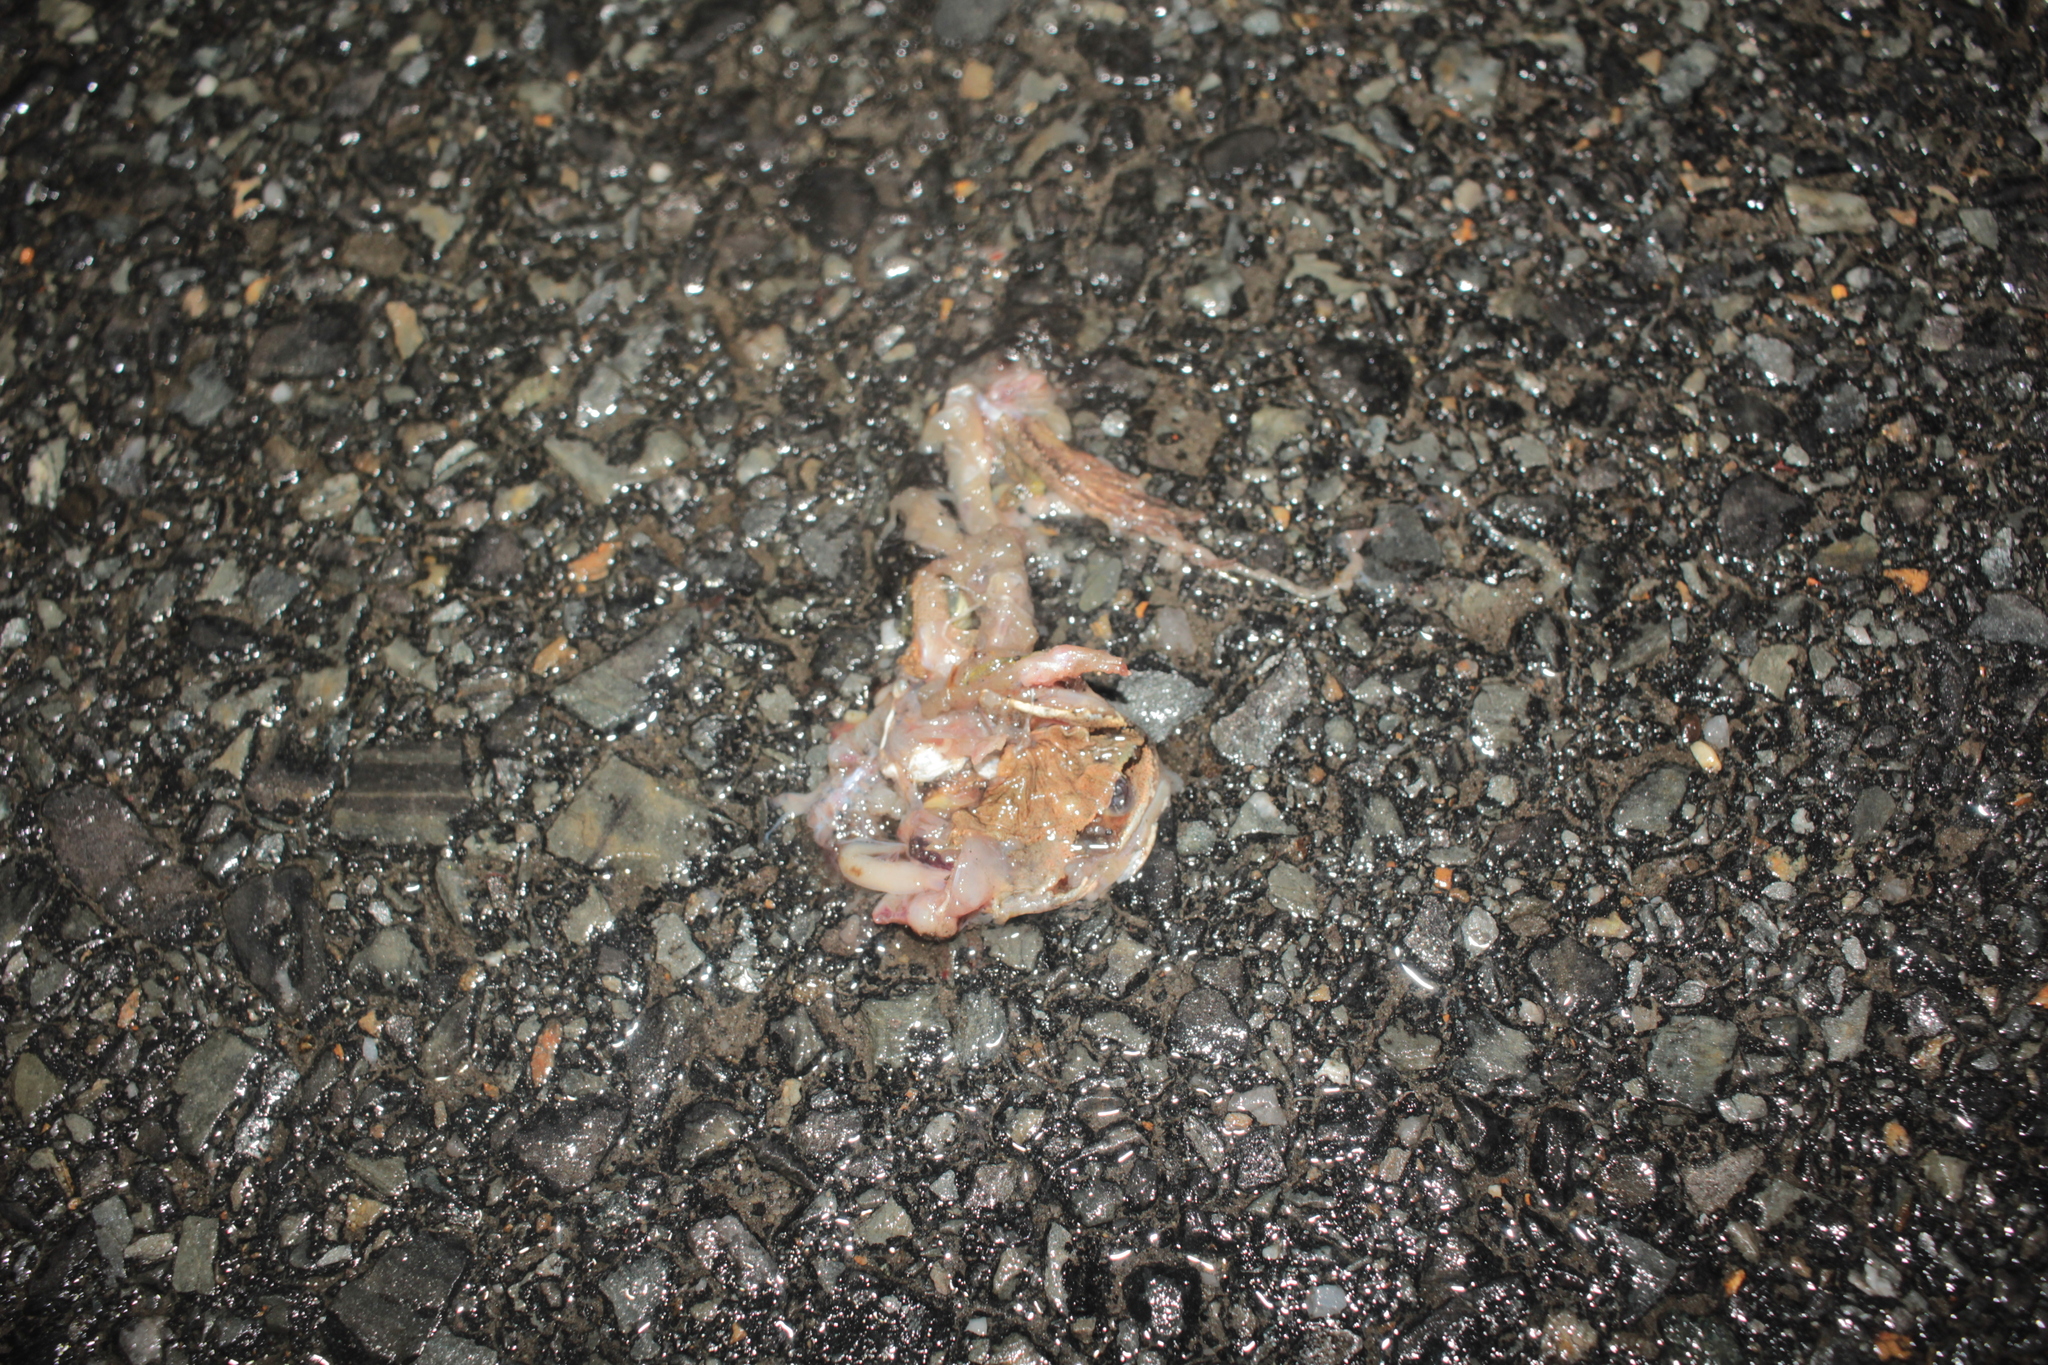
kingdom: Animalia
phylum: Chordata
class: Amphibia
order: Anura
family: Ranidae
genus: Lithobates
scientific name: Lithobates sylvaticus
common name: Wood frog
